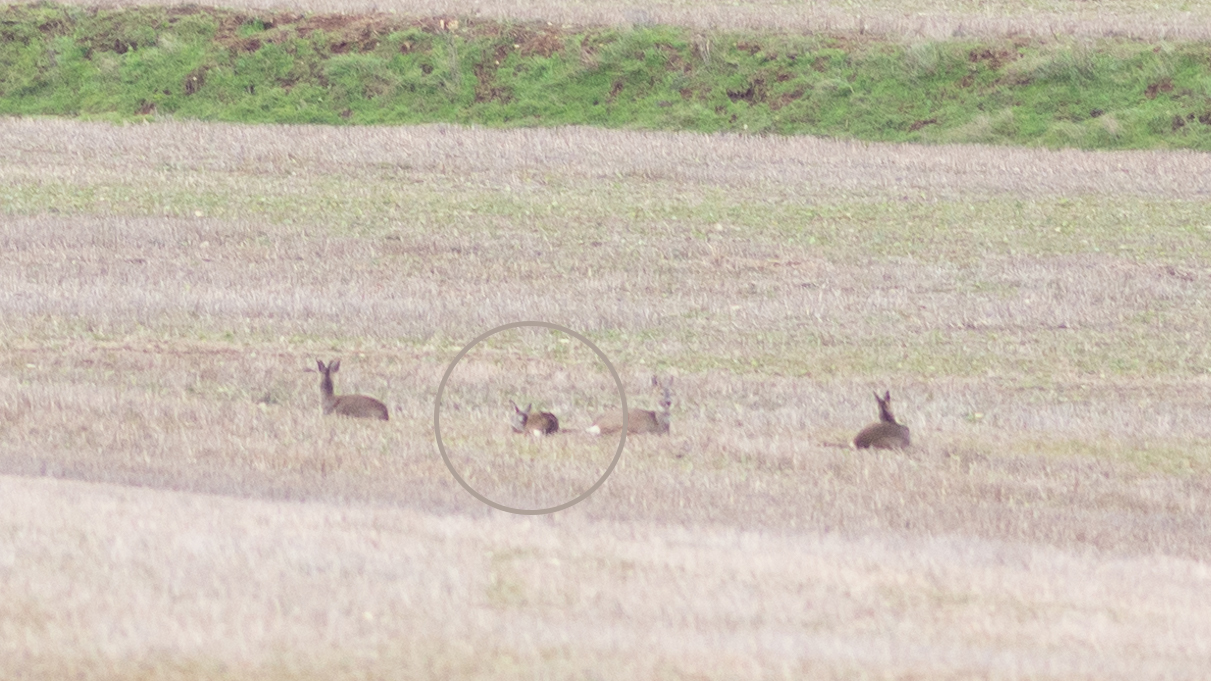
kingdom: Animalia
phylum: Chordata
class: Mammalia
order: Artiodactyla
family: Cervidae
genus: Capreolus
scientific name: Capreolus capreolus
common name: Western roe deer
